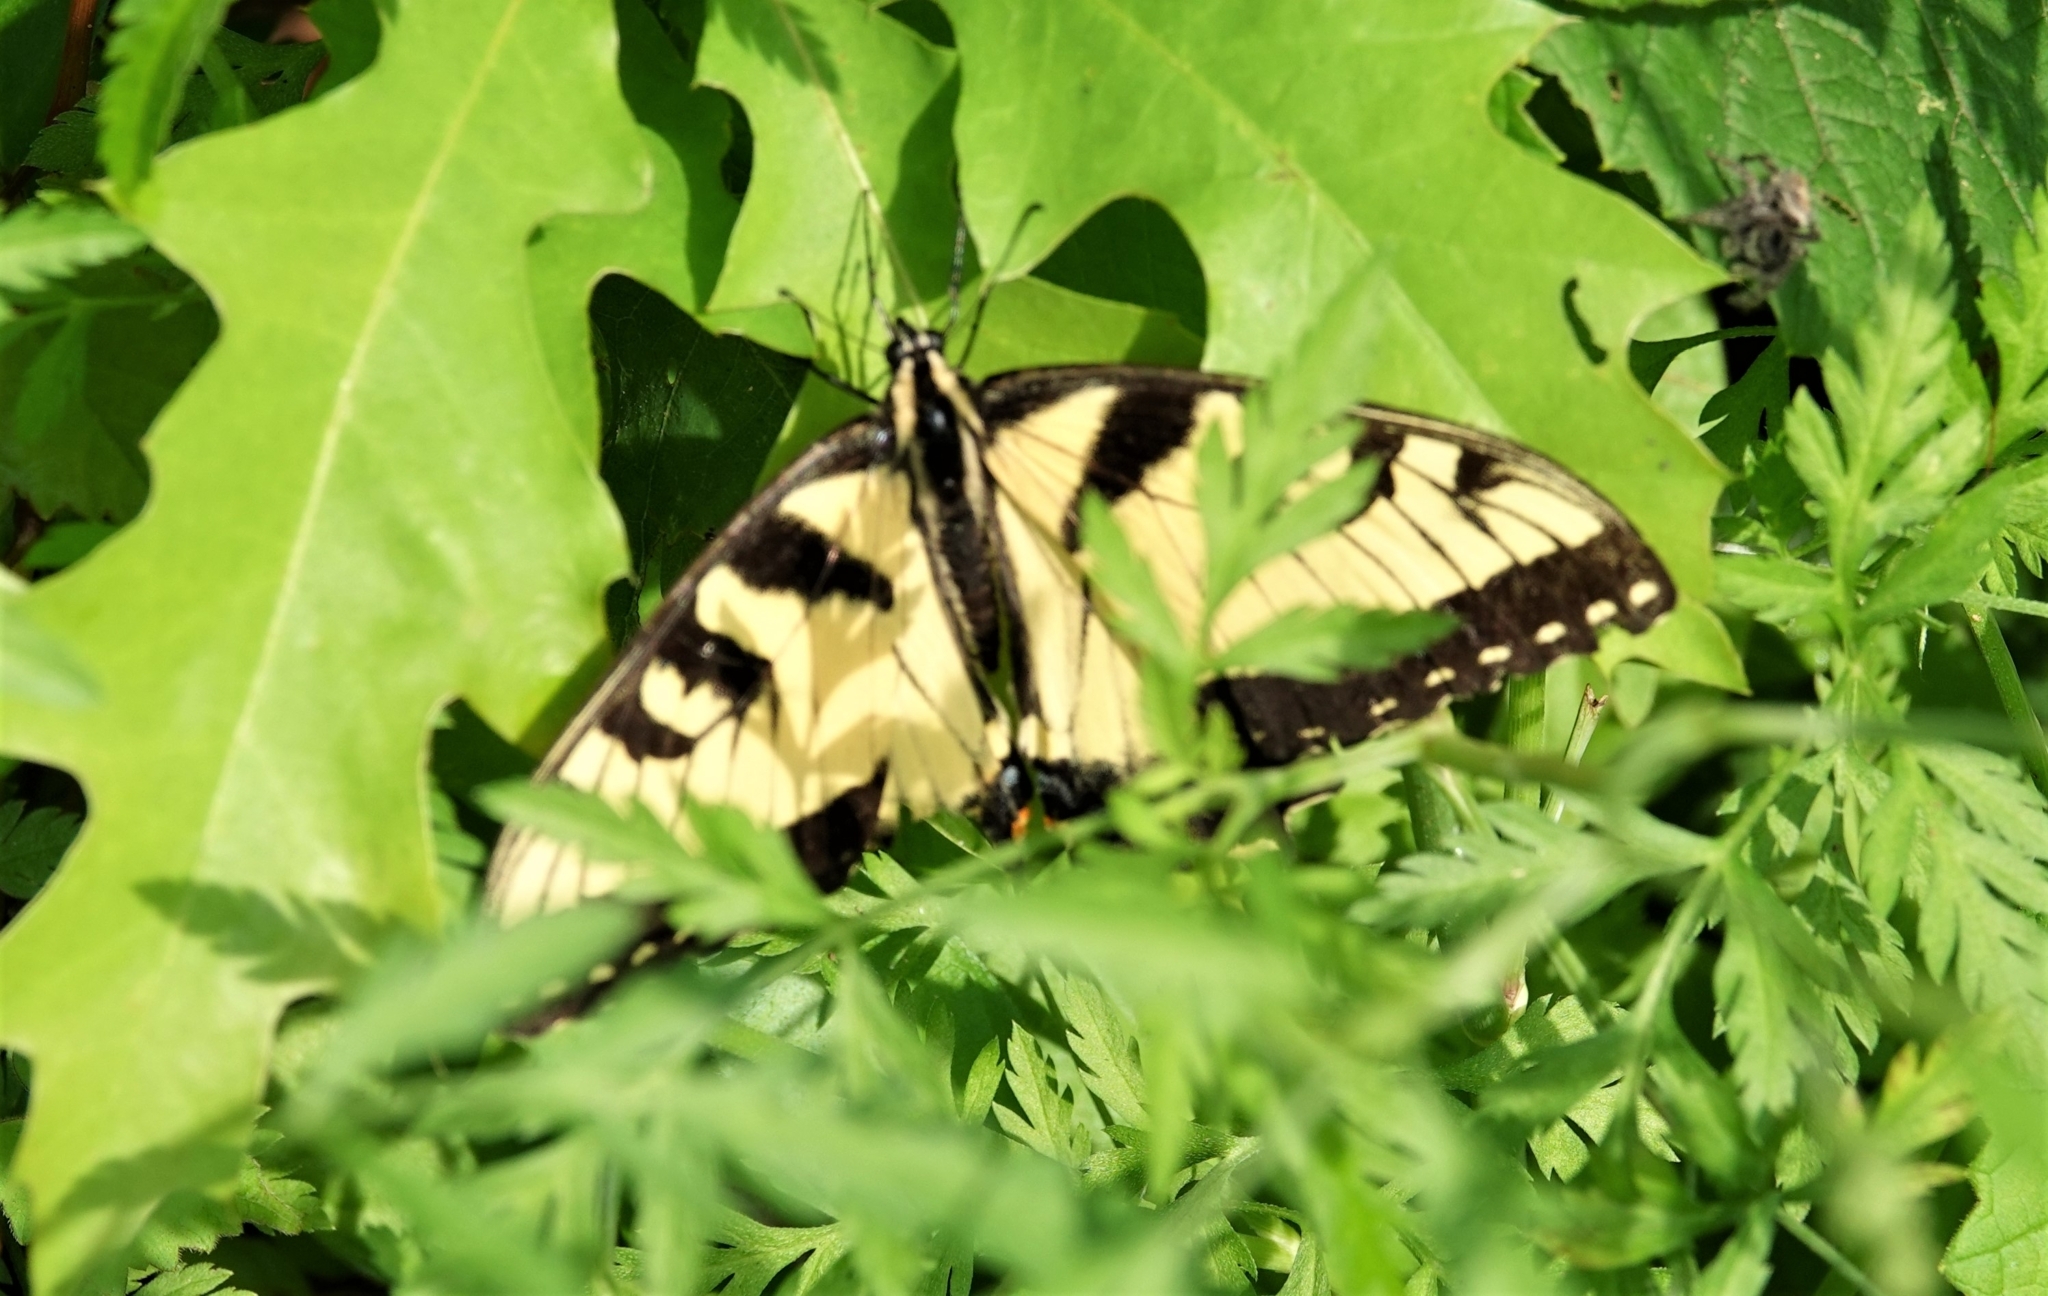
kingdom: Animalia
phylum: Arthropoda
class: Insecta
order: Lepidoptera
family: Papilionidae
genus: Papilio
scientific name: Papilio glaucus
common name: Tiger swallowtail
